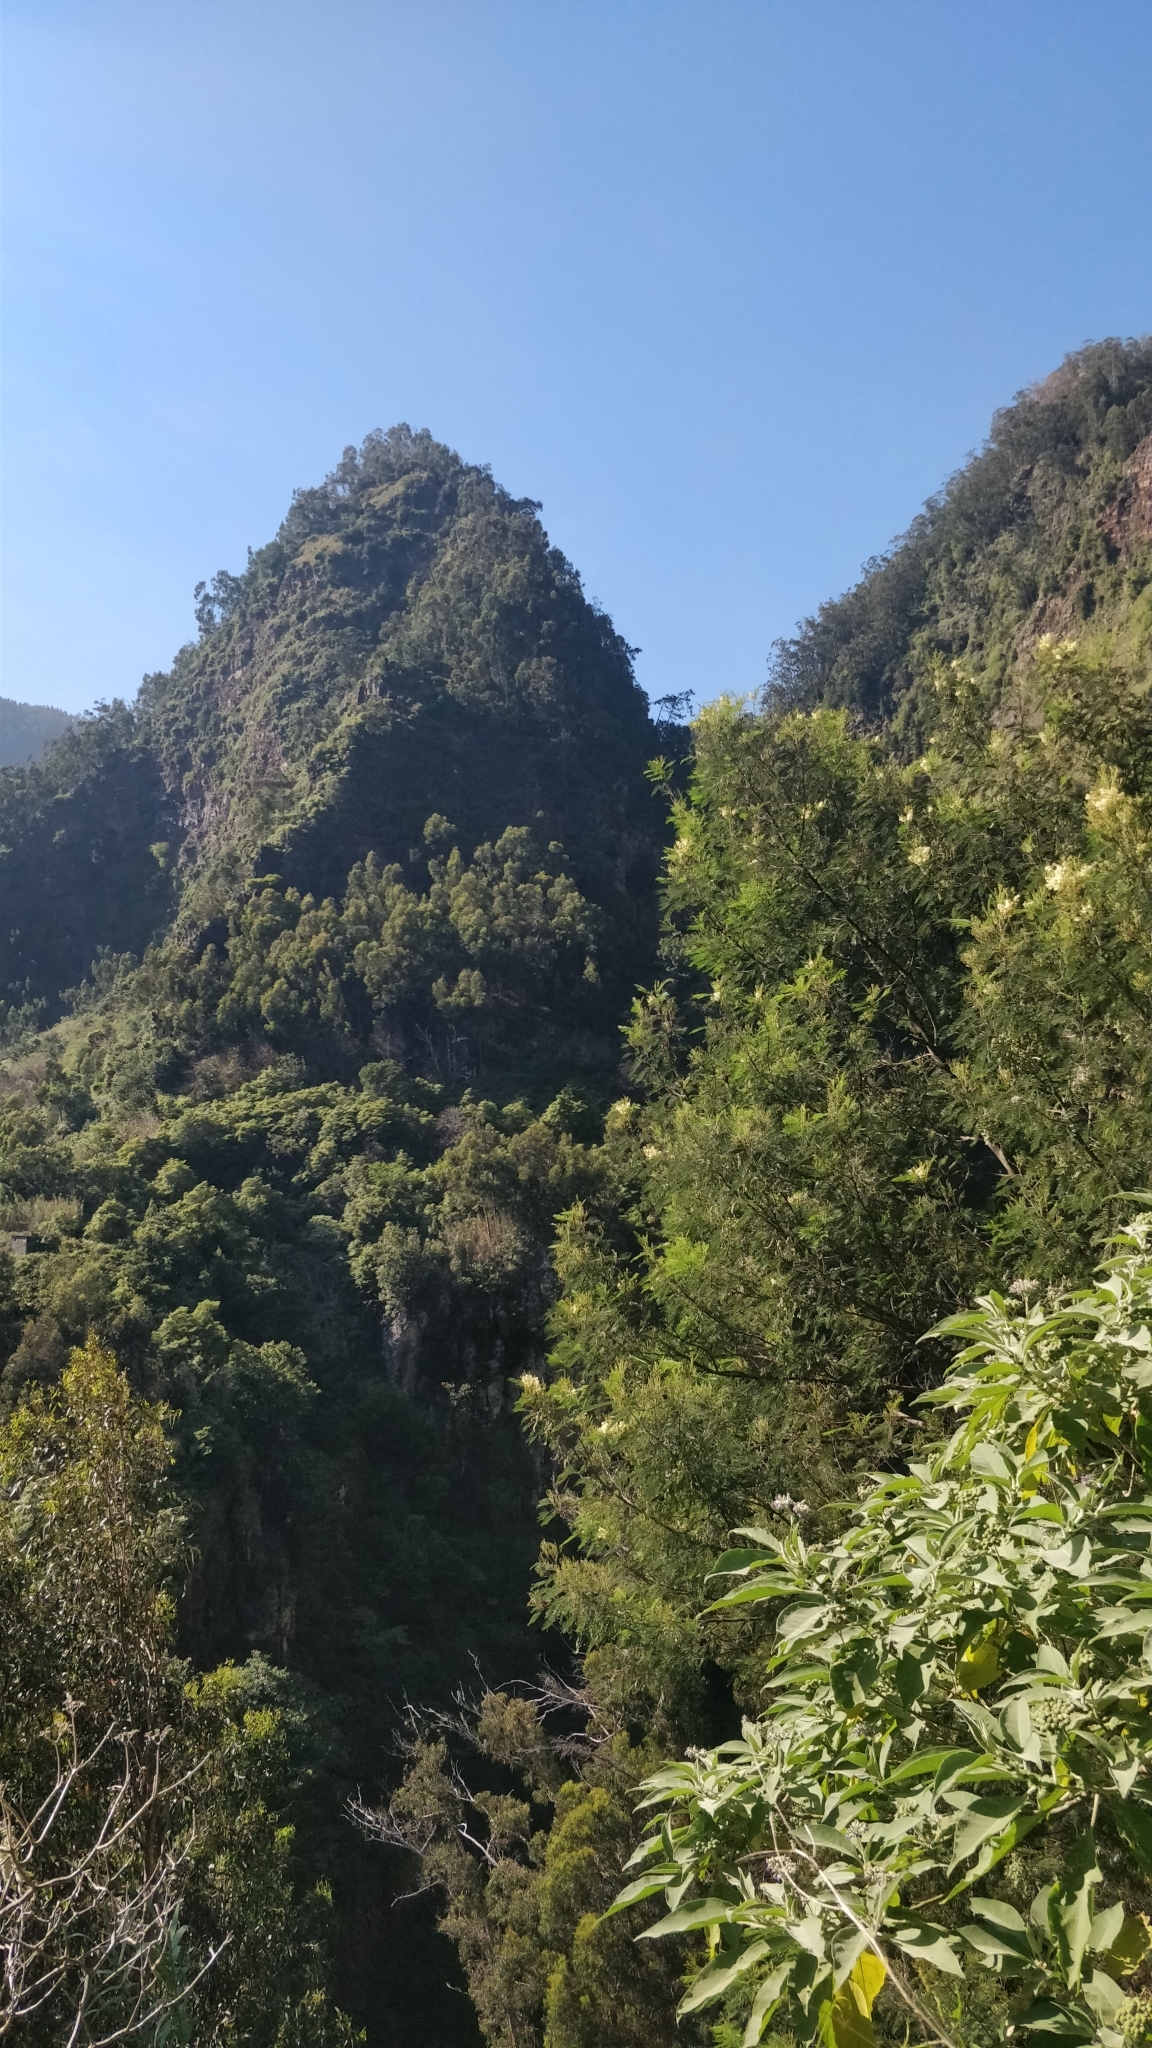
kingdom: Plantae
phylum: Tracheophyta
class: Magnoliopsida
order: Solanales
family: Solanaceae
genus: Solanum
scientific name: Solanum mauritianum
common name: Earleaf nightshade
